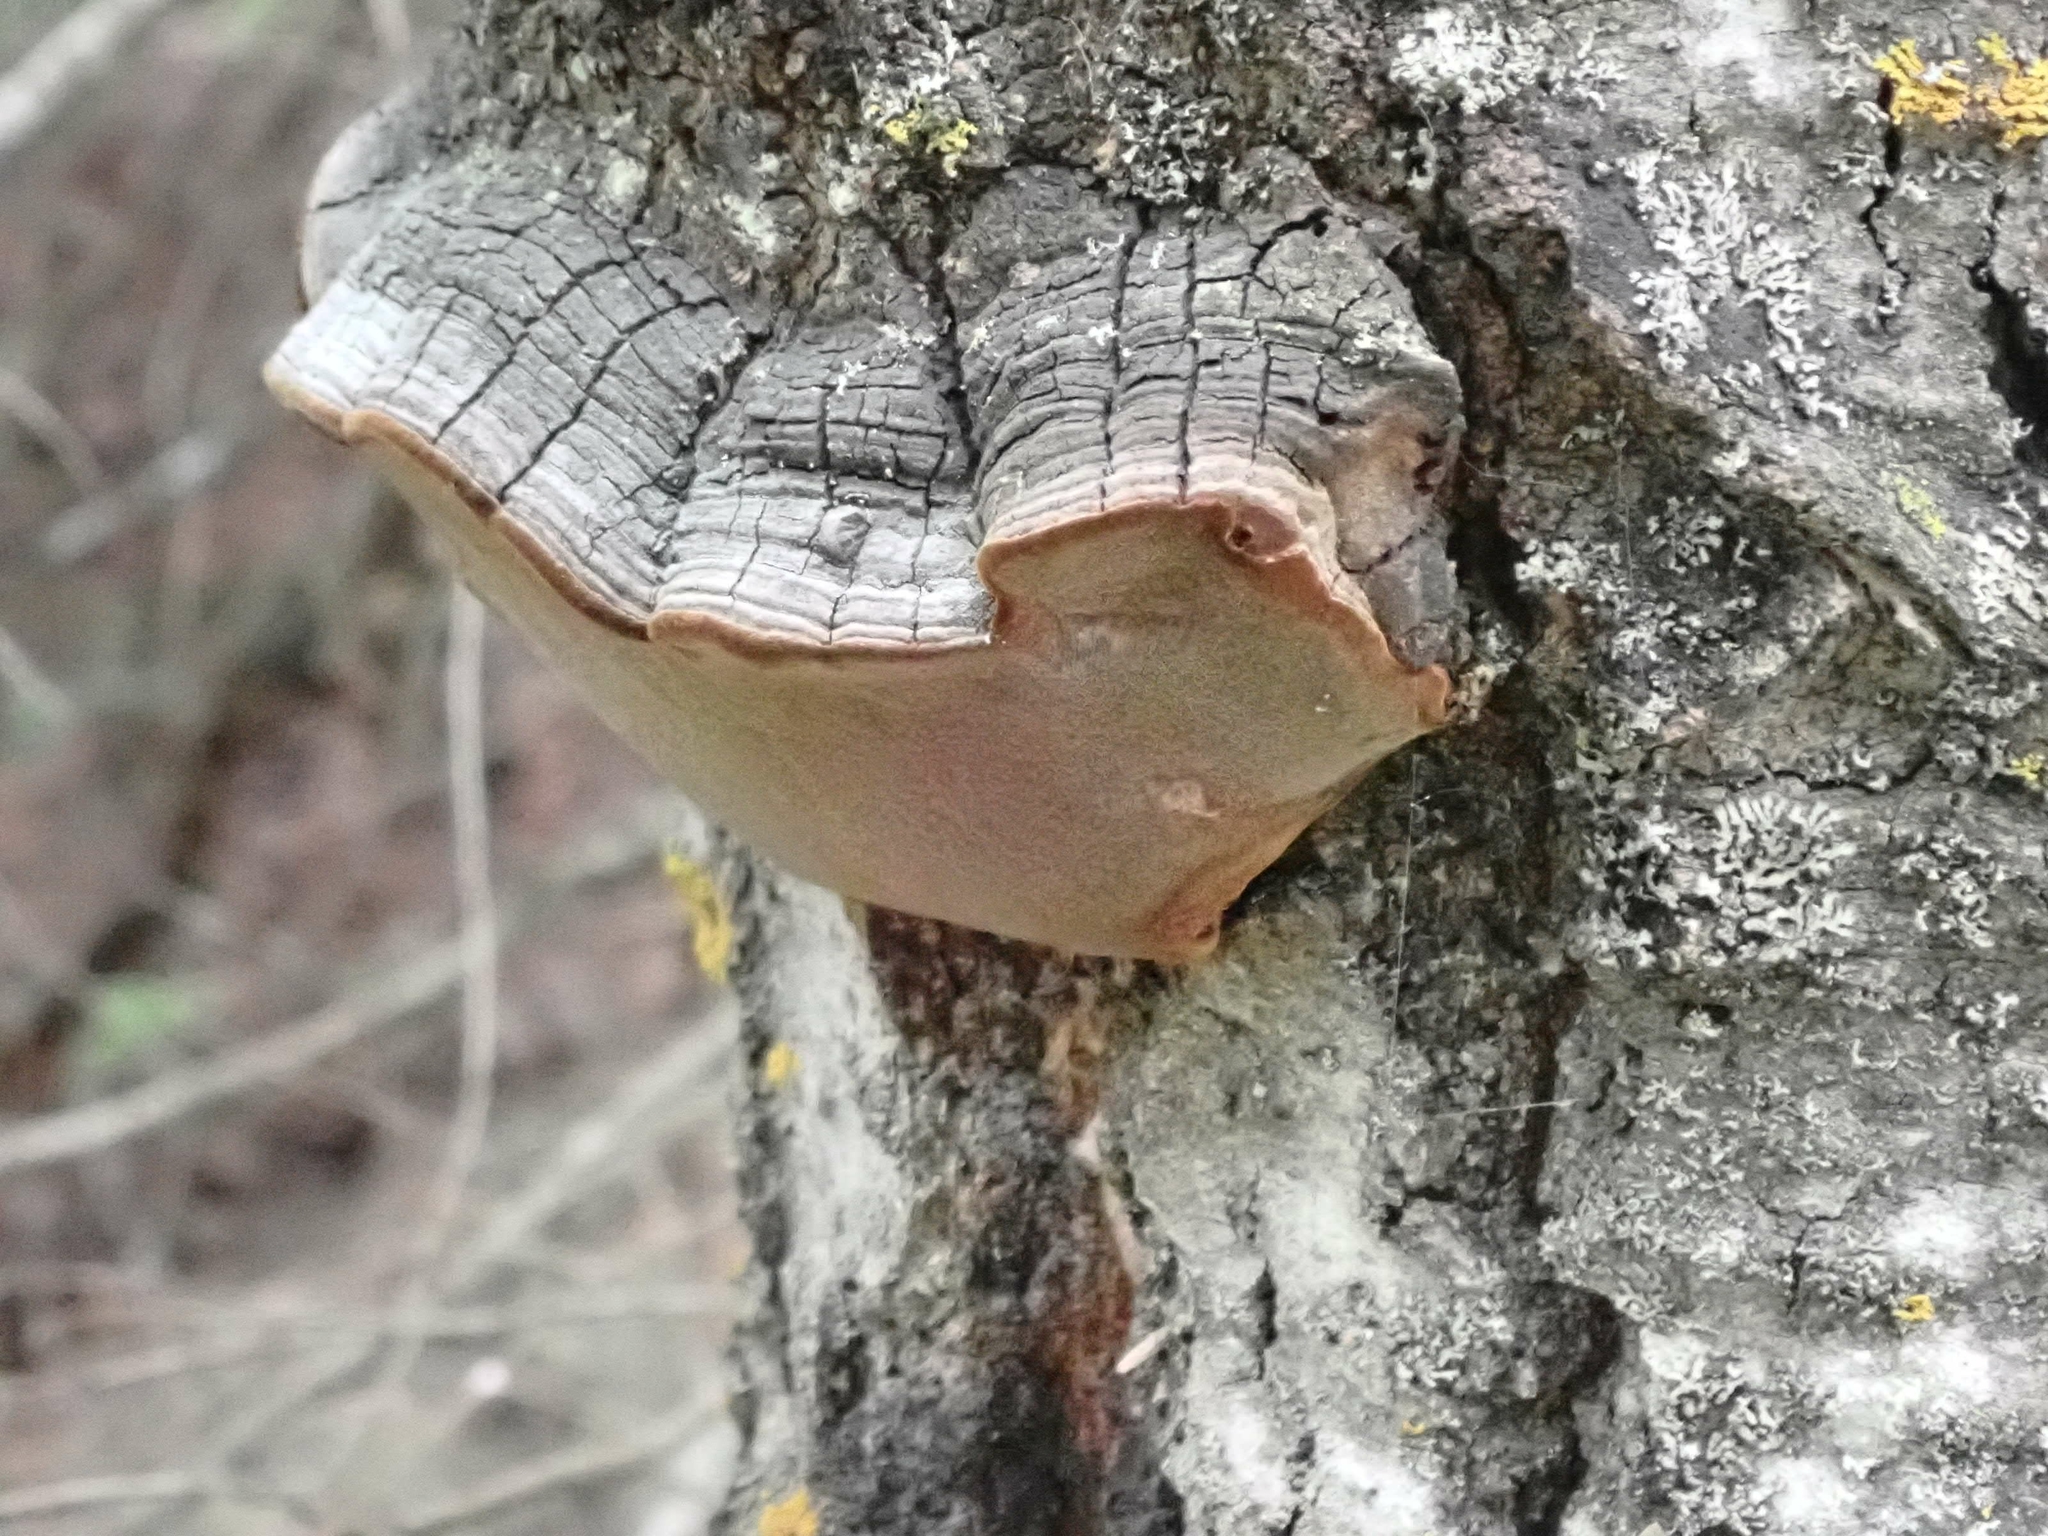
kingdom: Fungi
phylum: Basidiomycota
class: Agaricomycetes
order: Hymenochaetales
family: Hymenochaetaceae
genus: Phellinus
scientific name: Phellinus tremulae
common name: Aspen bracket
